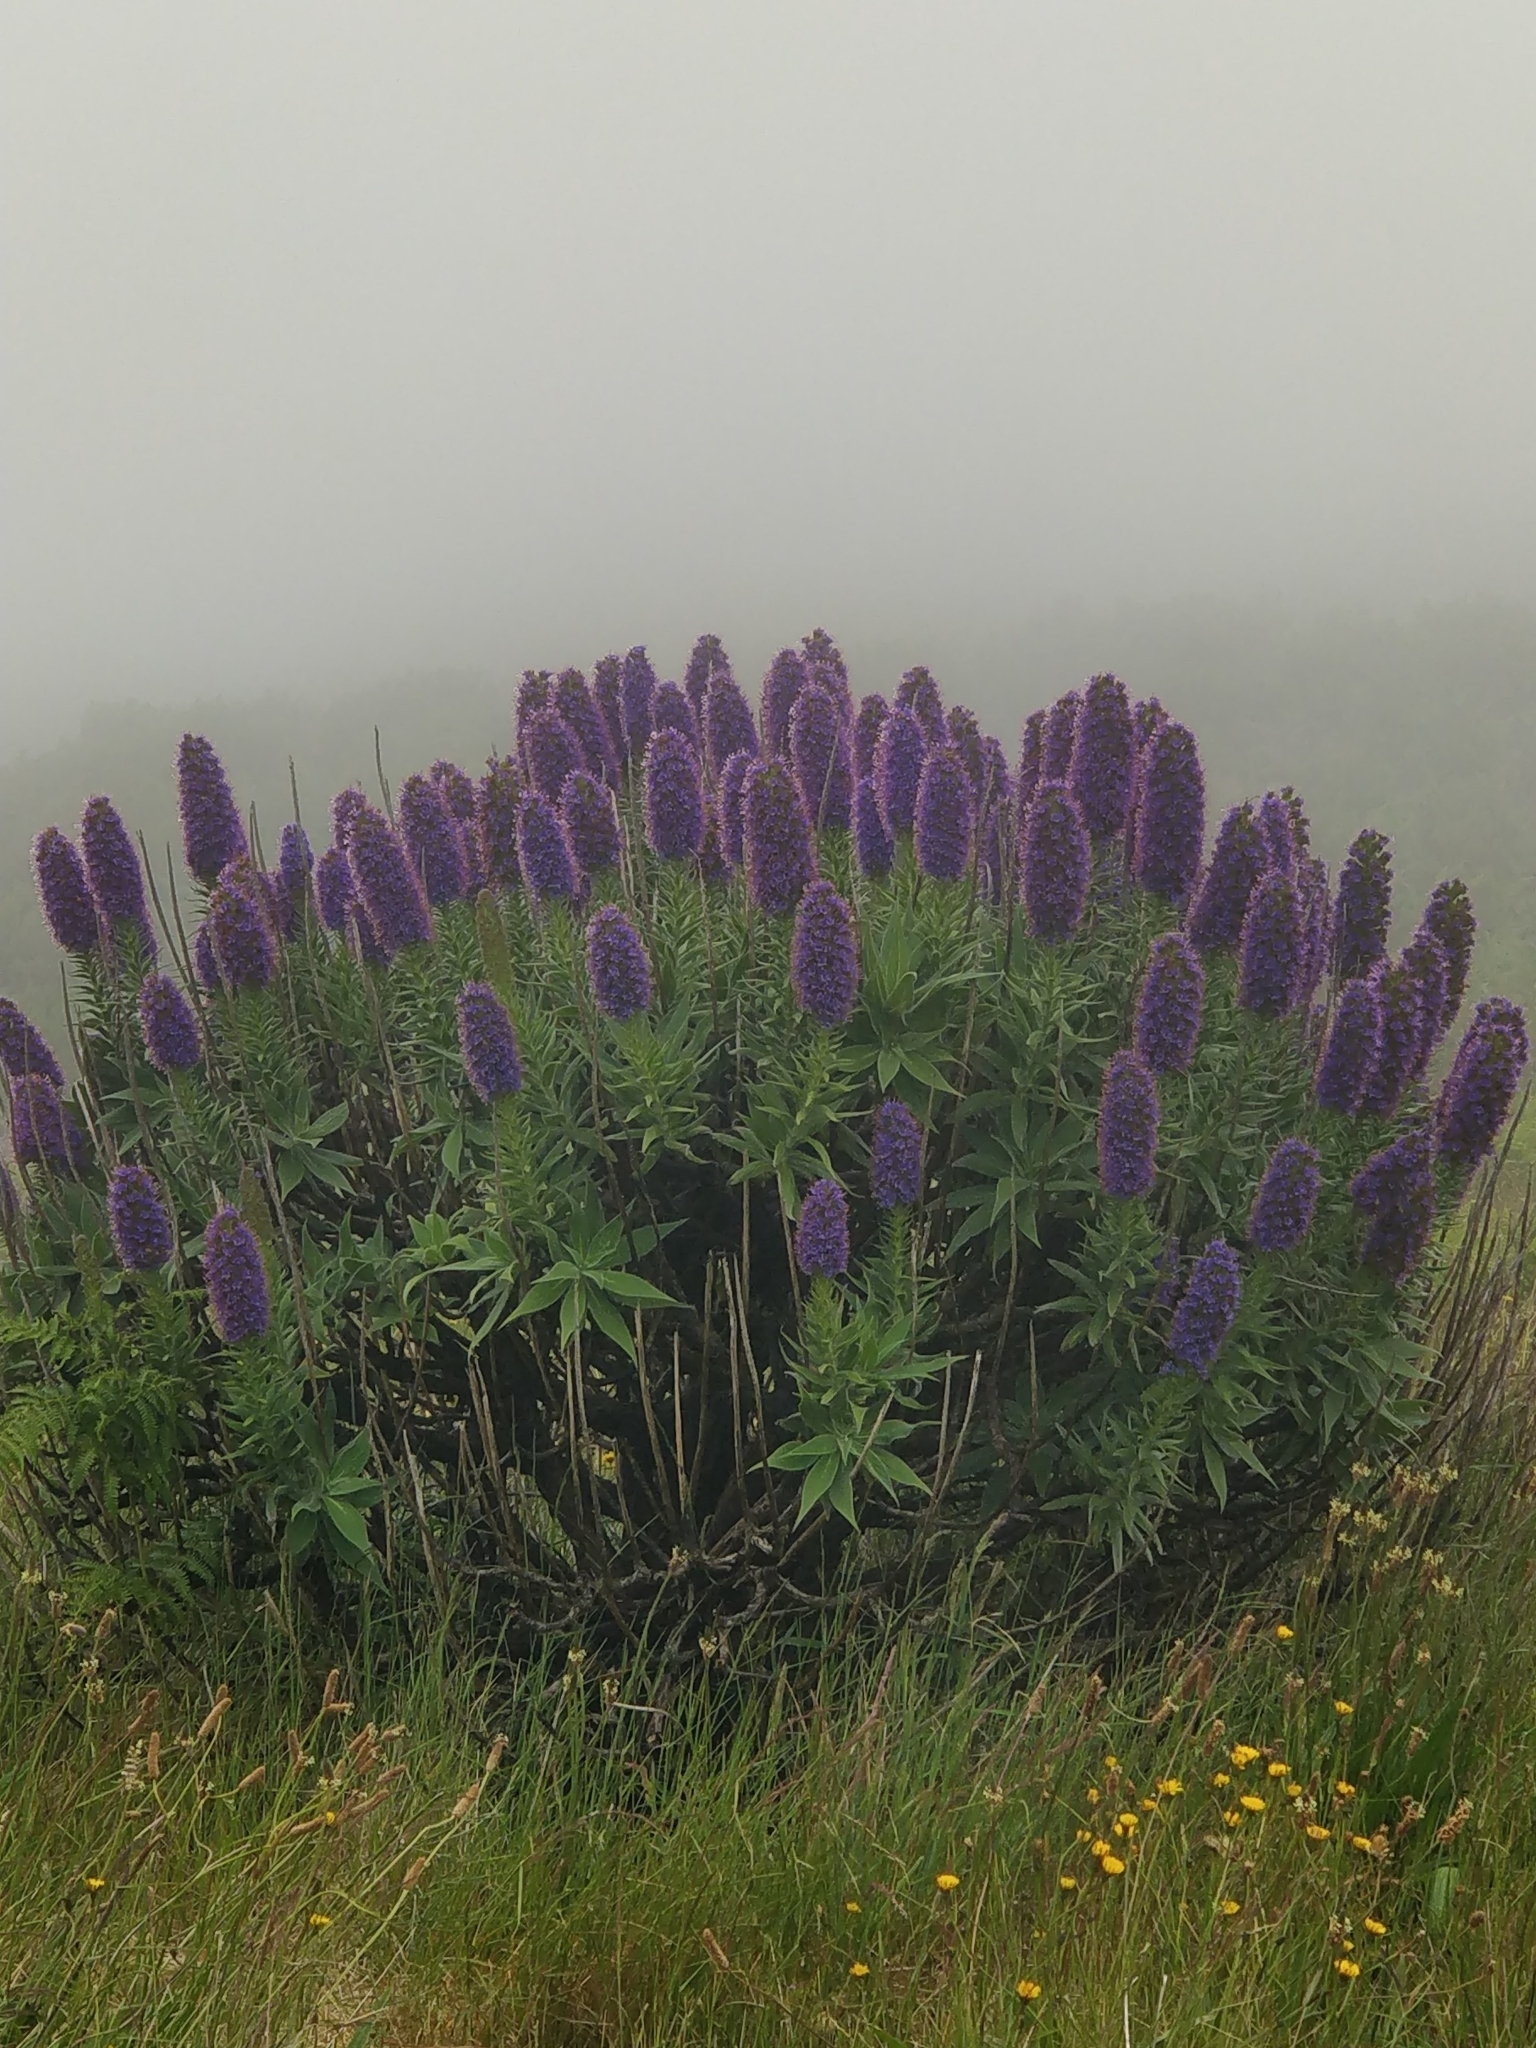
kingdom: Plantae
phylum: Tracheophyta
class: Magnoliopsida
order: Boraginales
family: Boraginaceae
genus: Echium
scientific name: Echium candicans
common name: Pride of madeira
